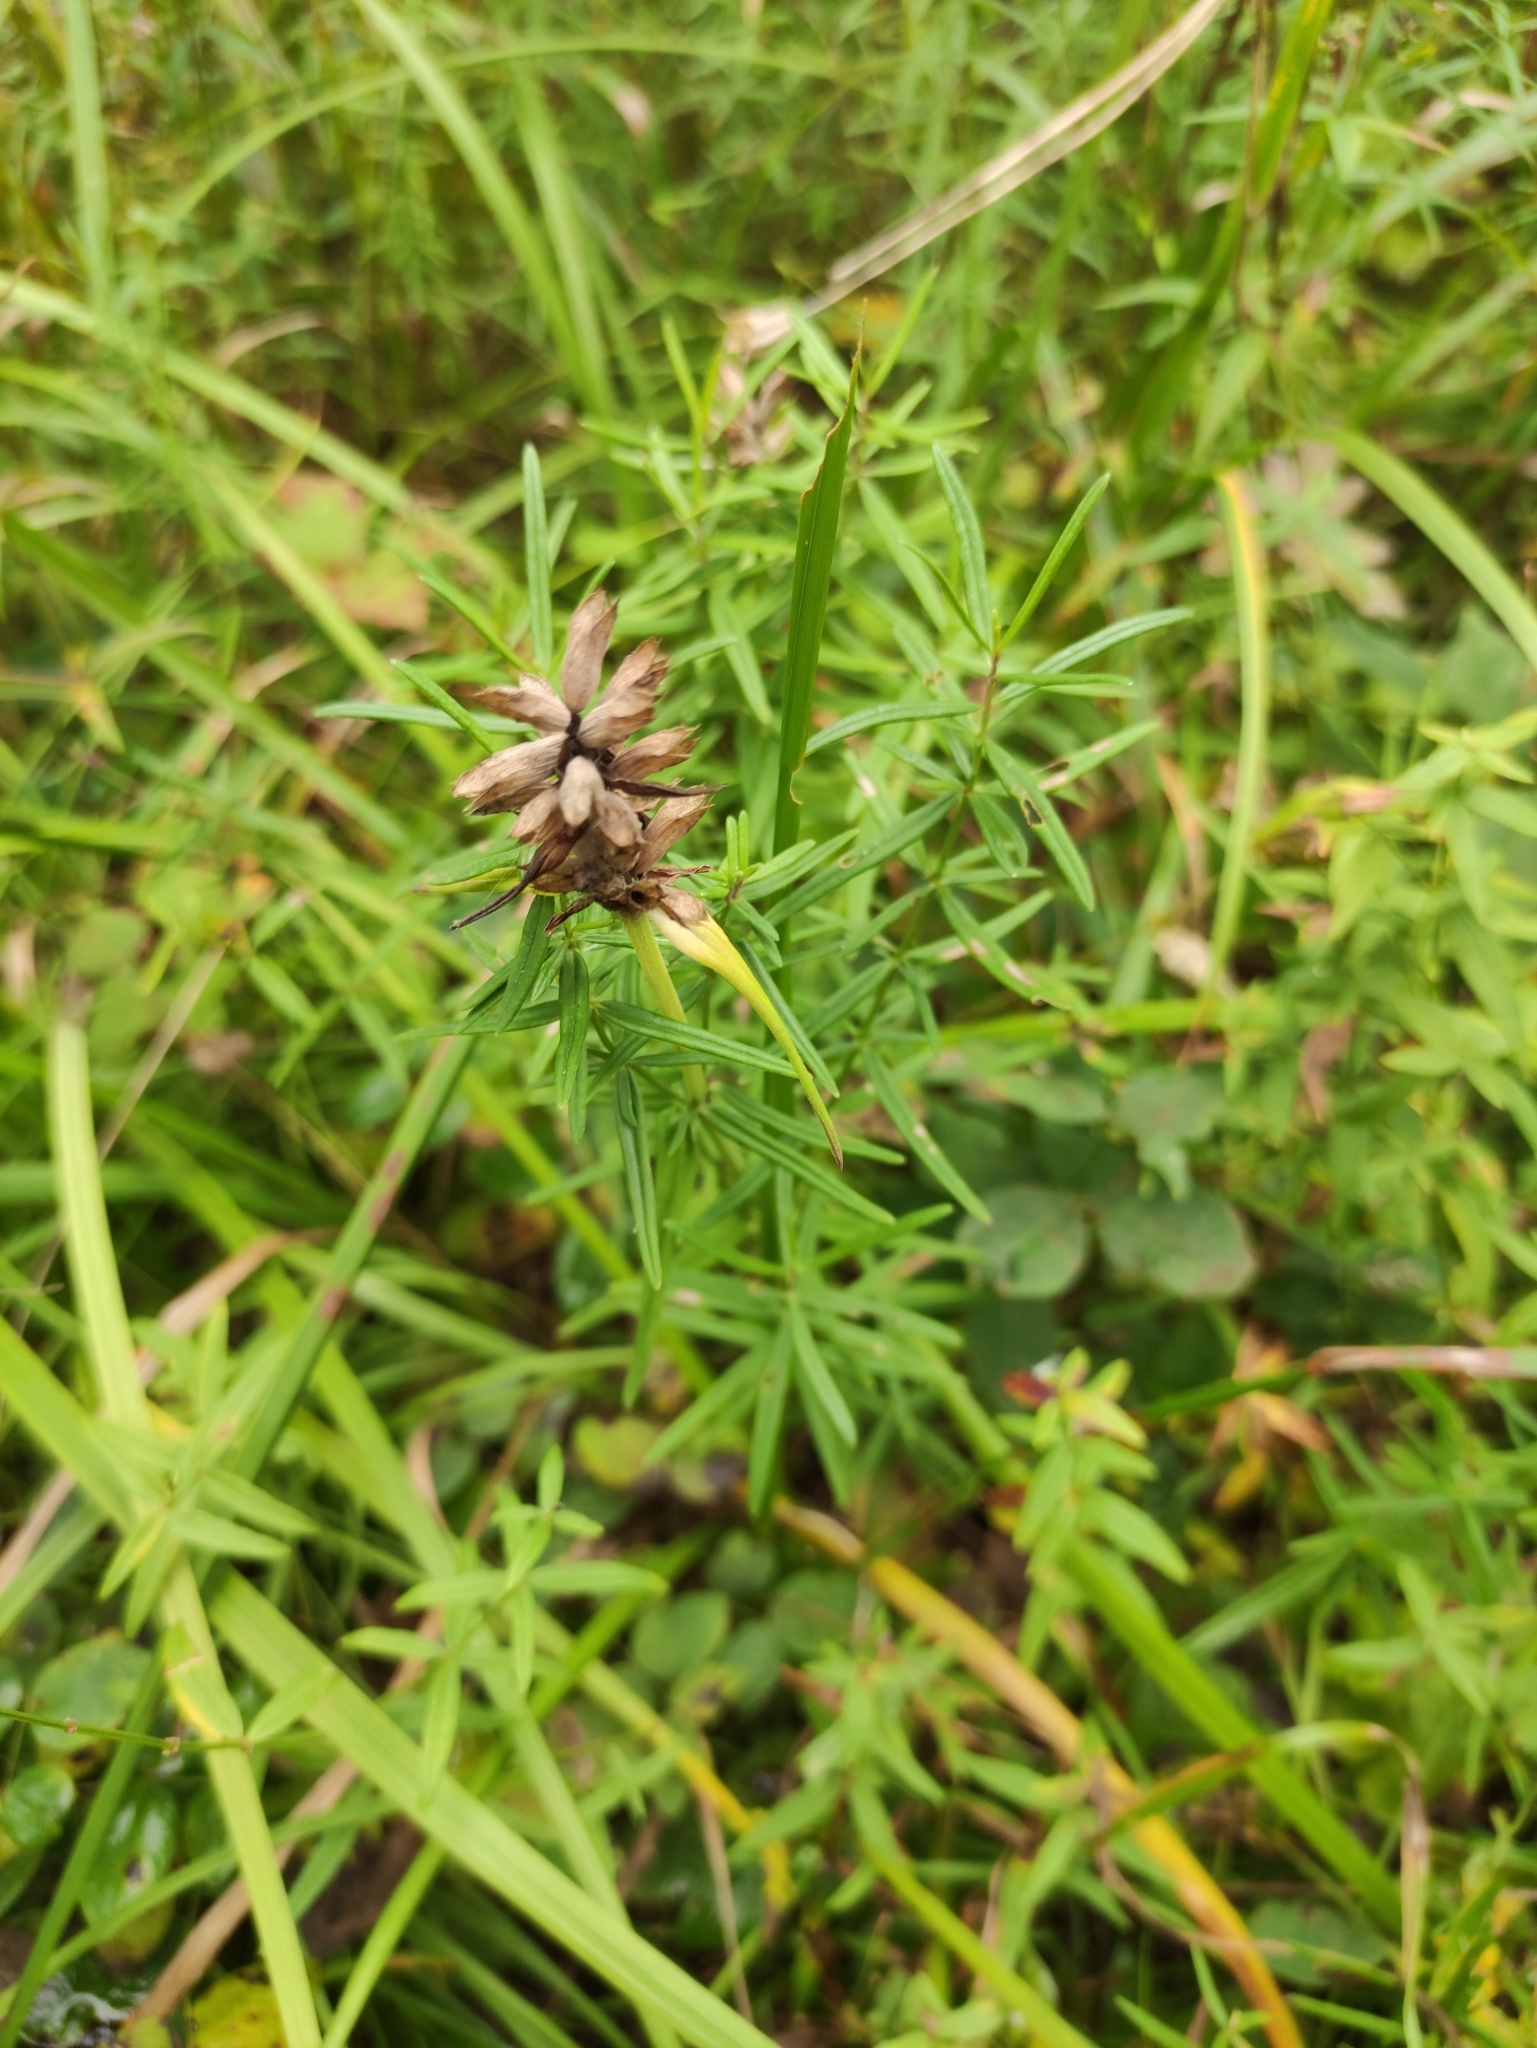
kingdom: Plantae
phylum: Tracheophyta
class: Magnoliopsida
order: Lamiales
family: Lamiaceae
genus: Dracocephalum
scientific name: Dracocephalum ruyschiana
